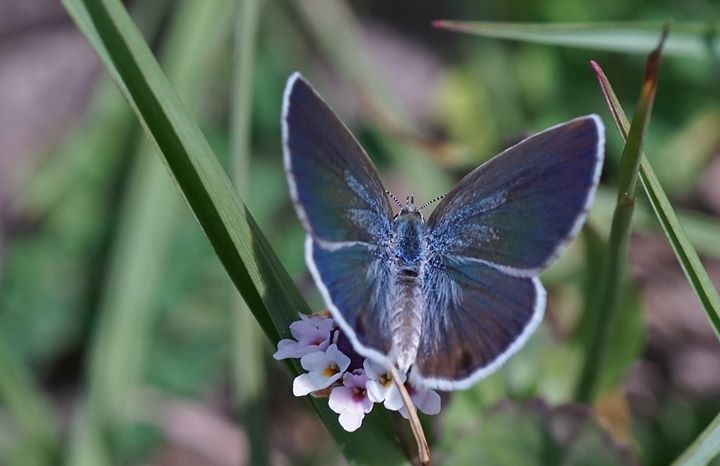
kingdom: Animalia
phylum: Arthropoda
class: Insecta
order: Lepidoptera
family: Lycaenidae
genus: Hemiargus
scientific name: Hemiargus ceraunus
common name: Ceraunus blue
